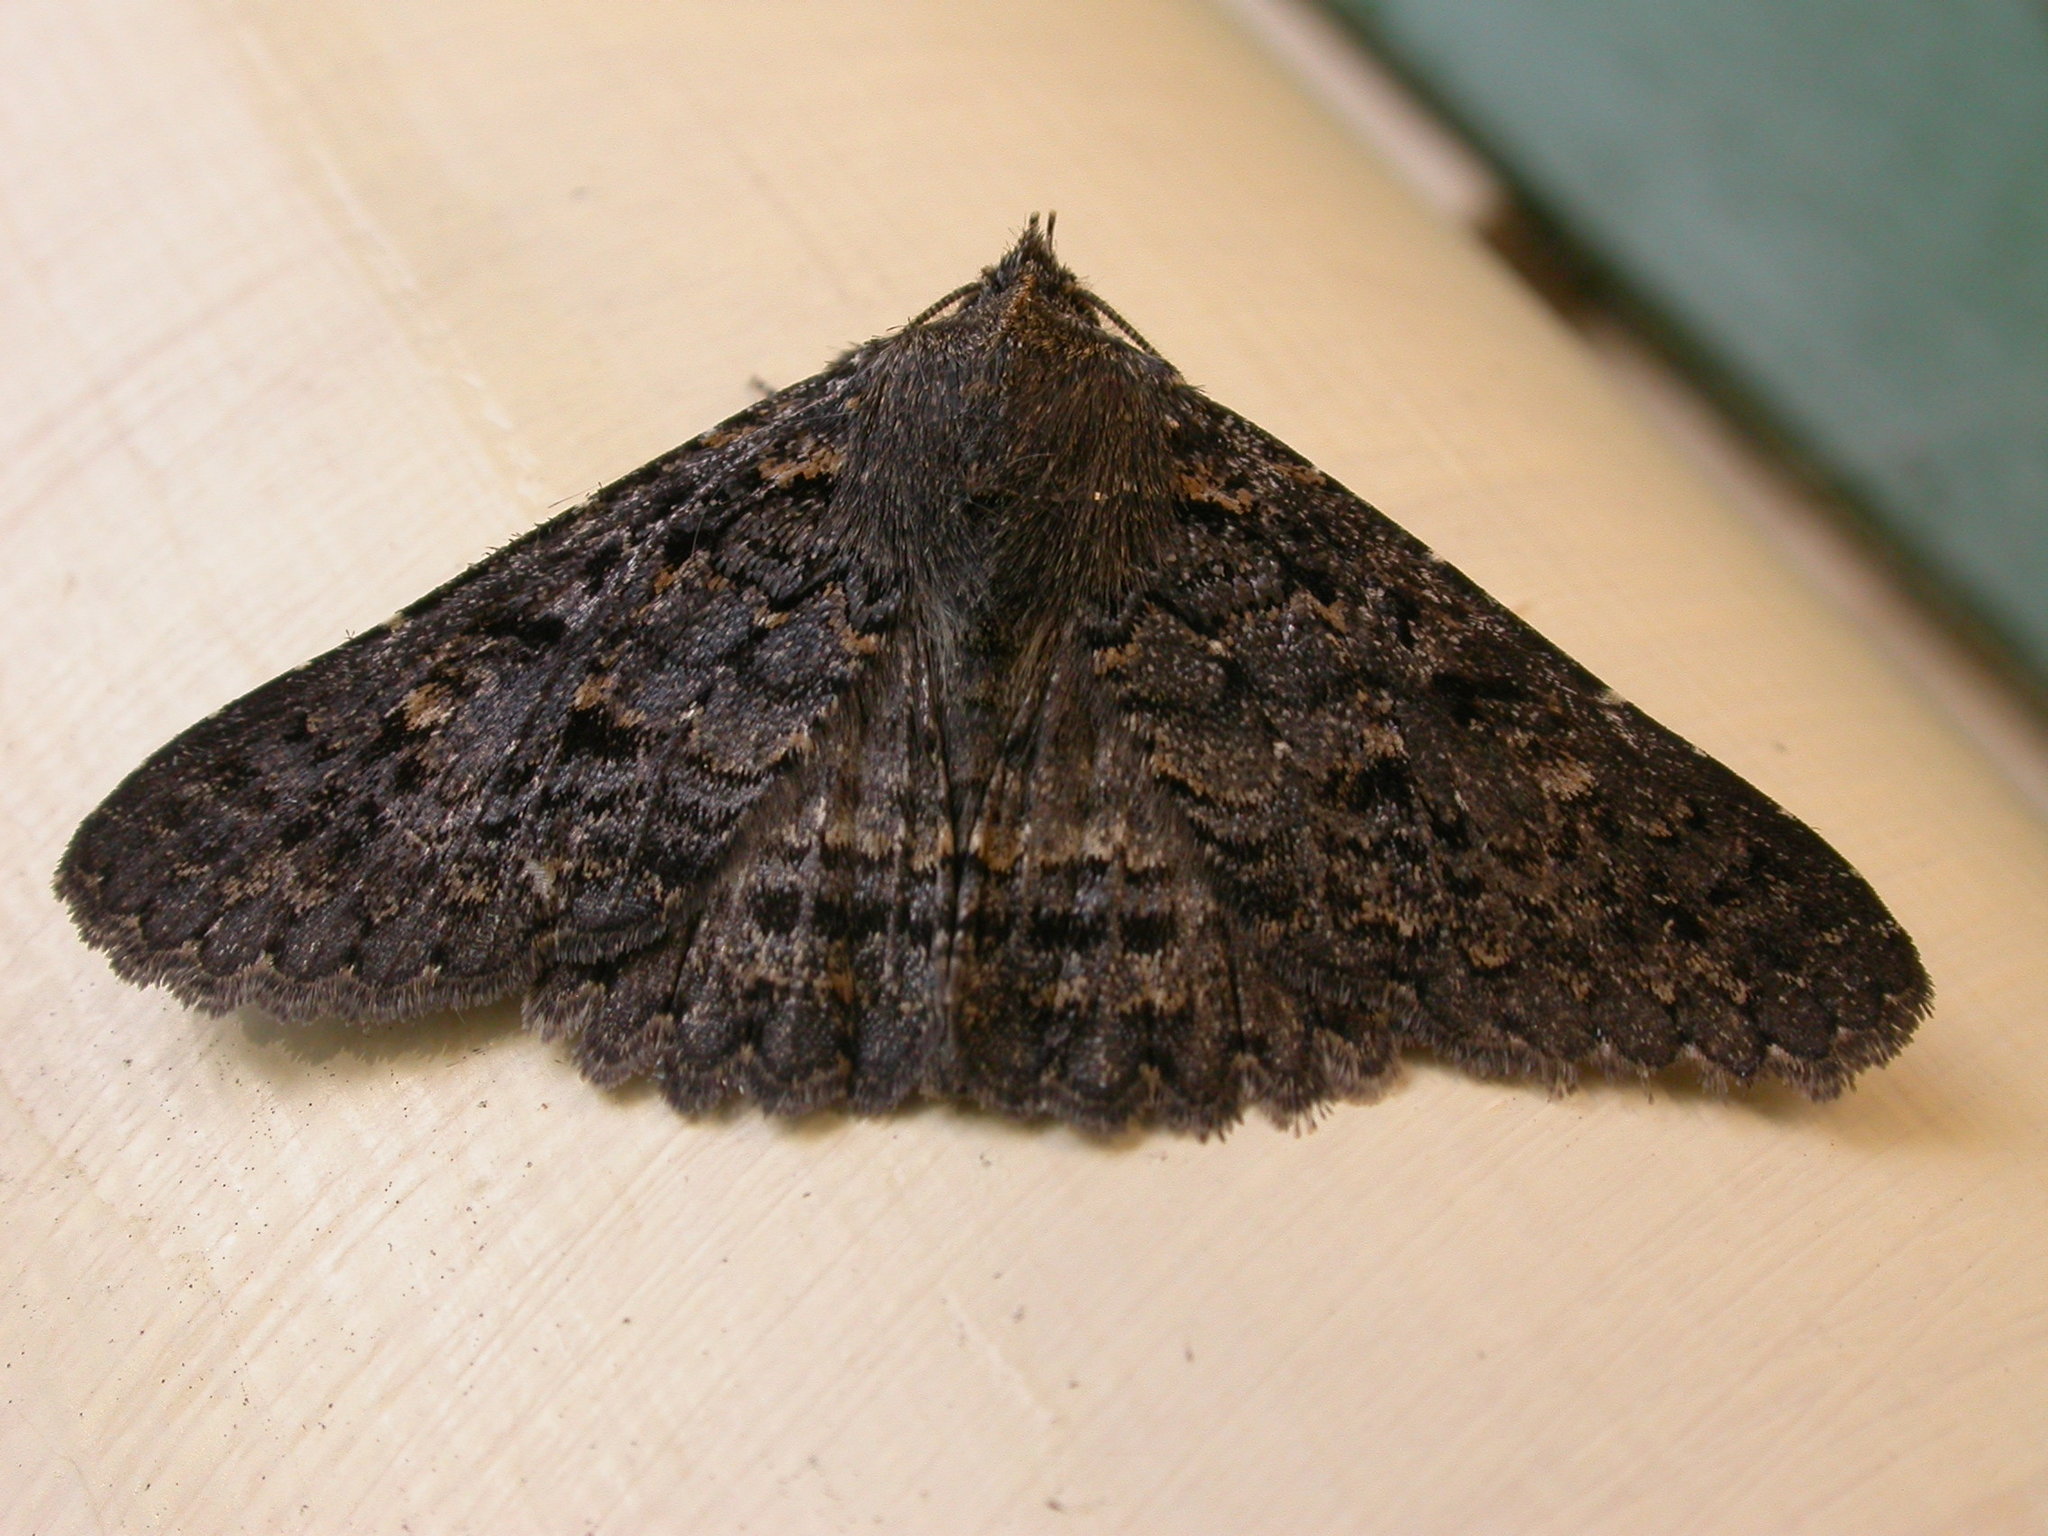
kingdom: Animalia
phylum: Arthropoda
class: Insecta
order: Lepidoptera
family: Erebidae
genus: Praxis
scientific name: Praxis edwardsii
